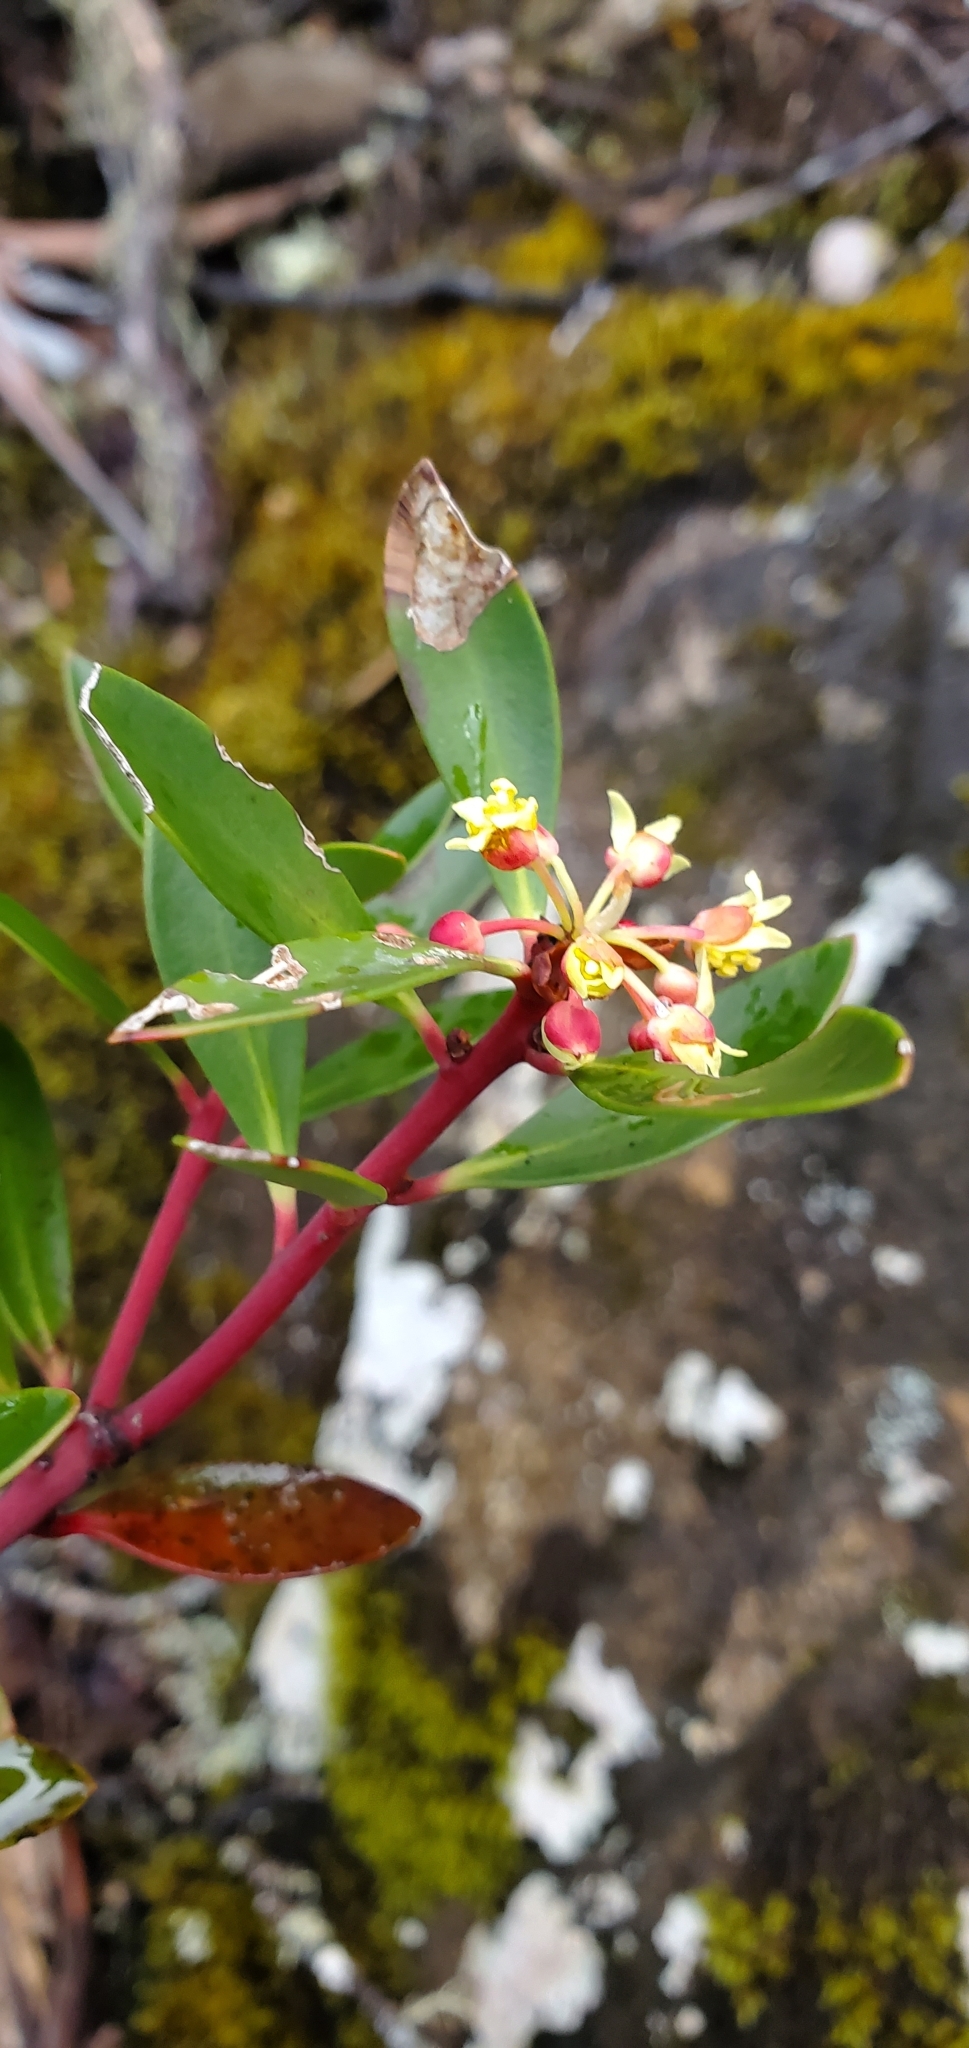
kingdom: Plantae
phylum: Tracheophyta
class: Magnoliopsida
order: Canellales
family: Winteraceae
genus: Drimys
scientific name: Drimys aromatica
